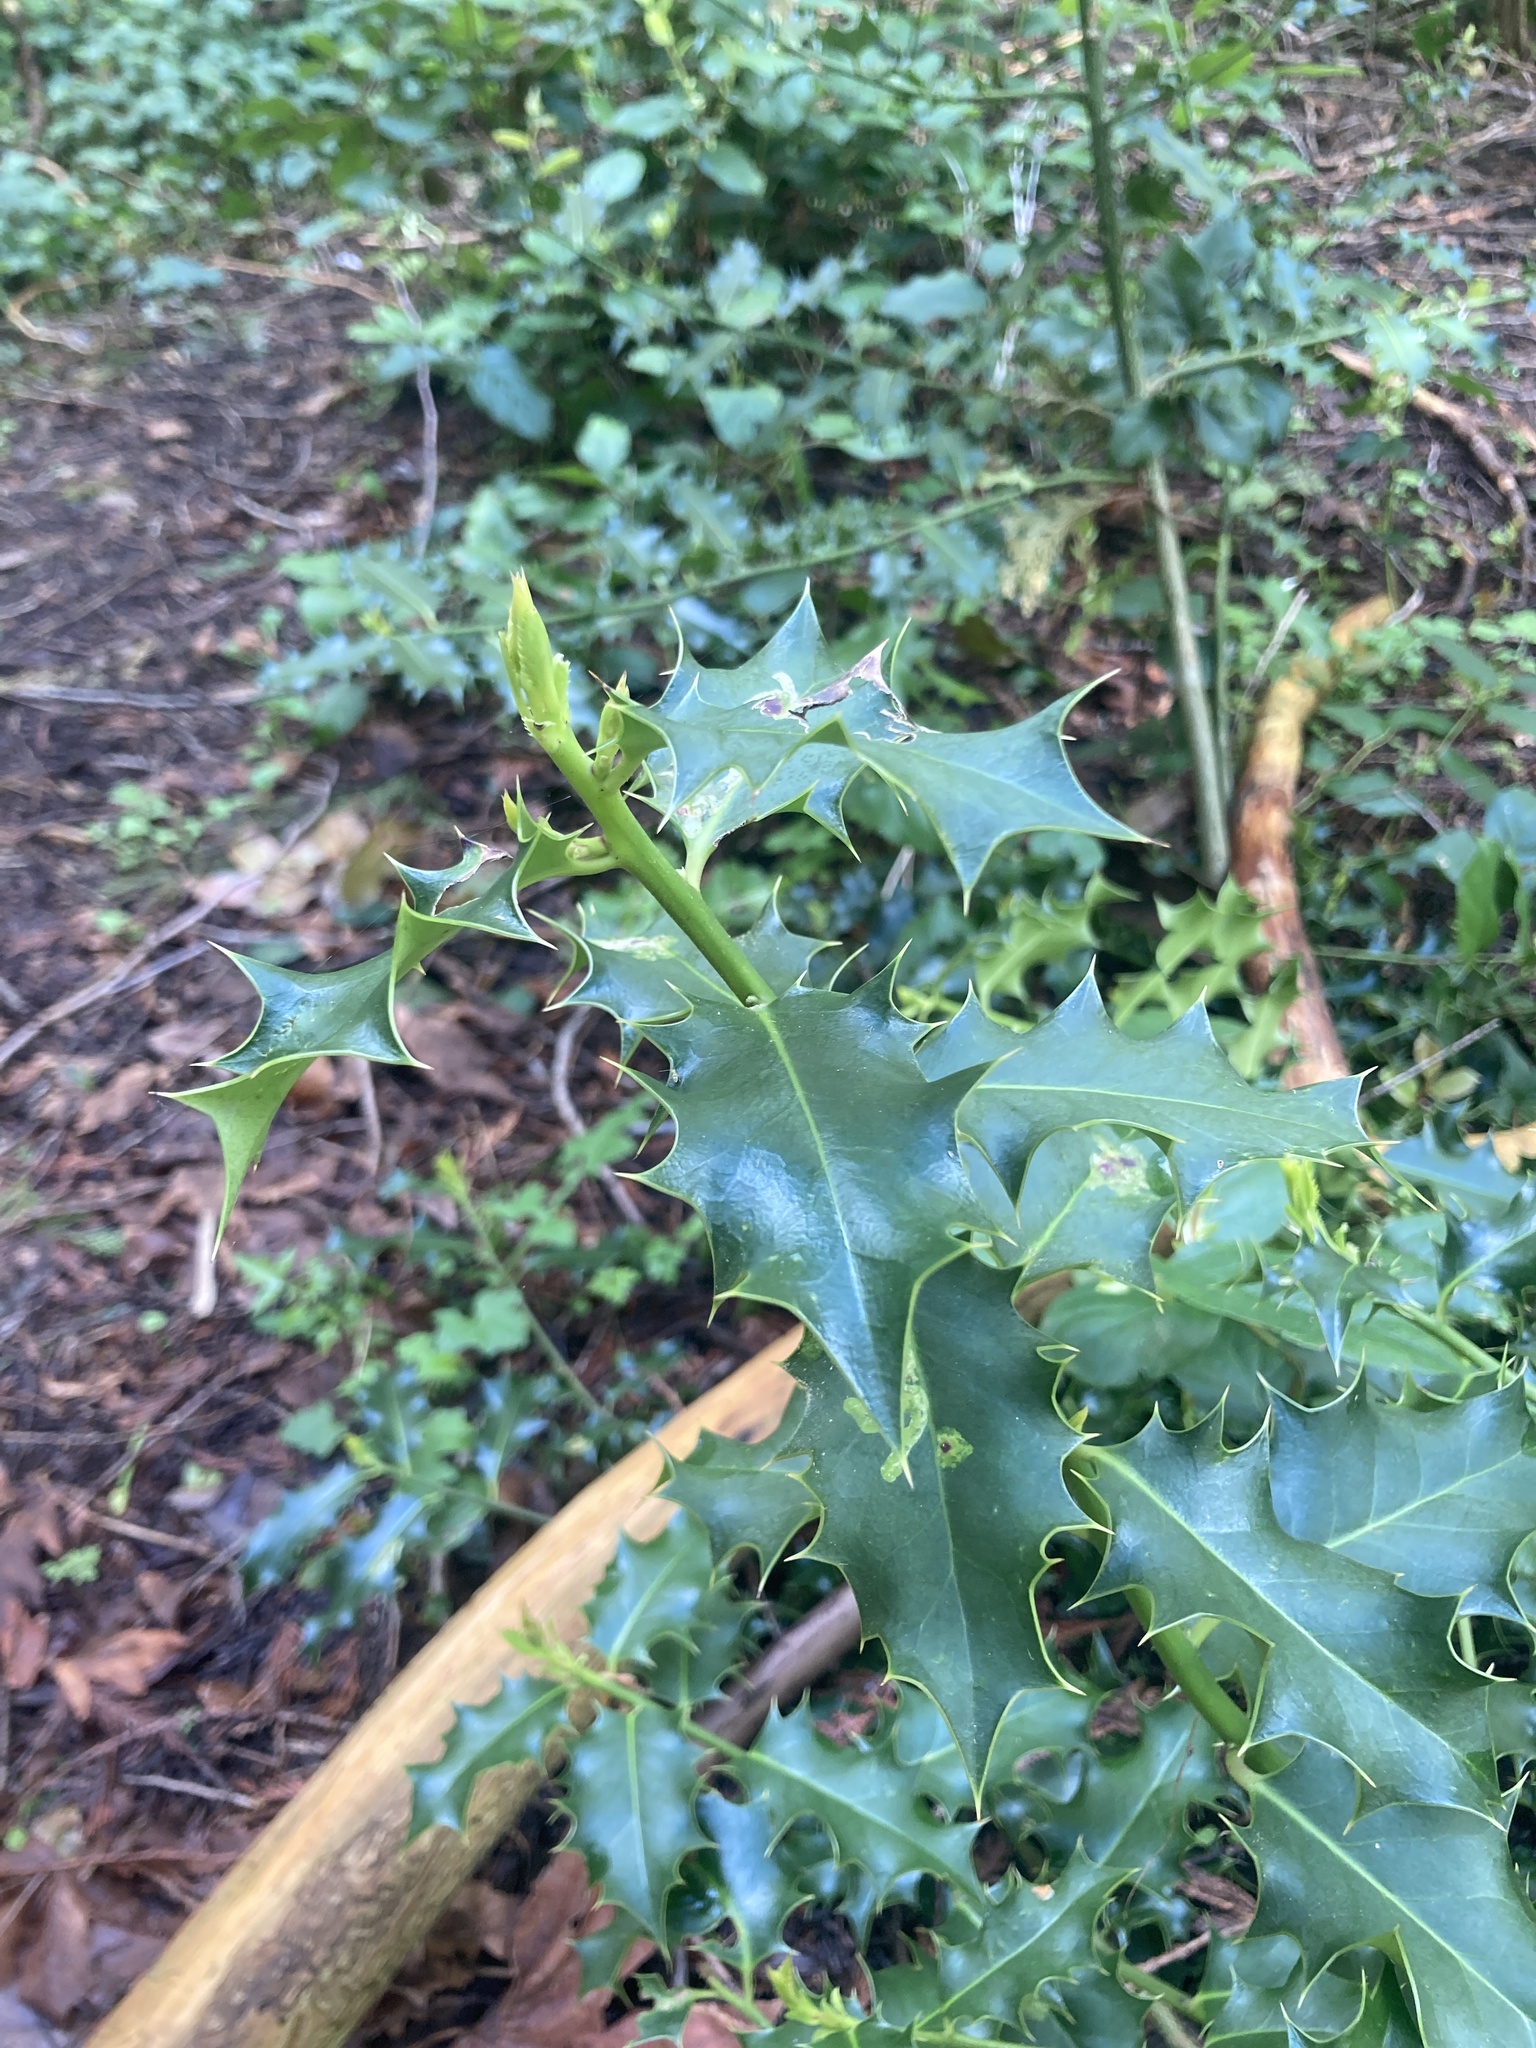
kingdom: Plantae
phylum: Tracheophyta
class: Magnoliopsida
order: Aquifoliales
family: Aquifoliaceae
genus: Ilex
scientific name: Ilex aquifolium
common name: English holly
